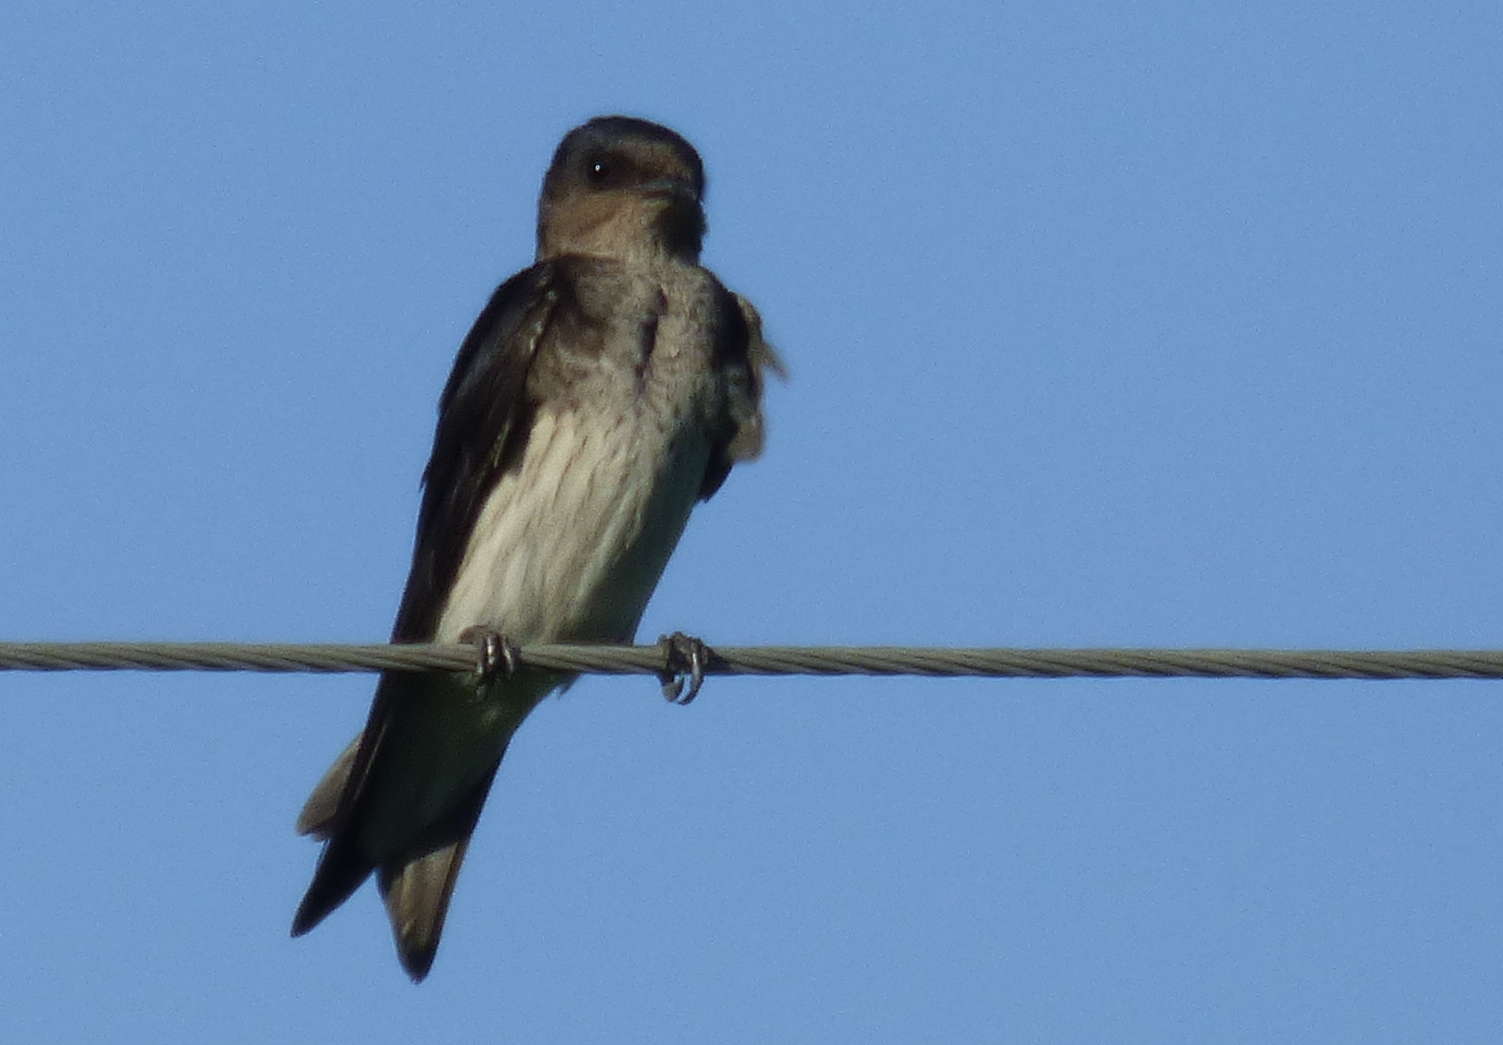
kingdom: Animalia
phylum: Chordata
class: Aves
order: Passeriformes
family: Hirundinidae
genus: Progne
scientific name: Progne chalybea
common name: Grey-breasted martin
